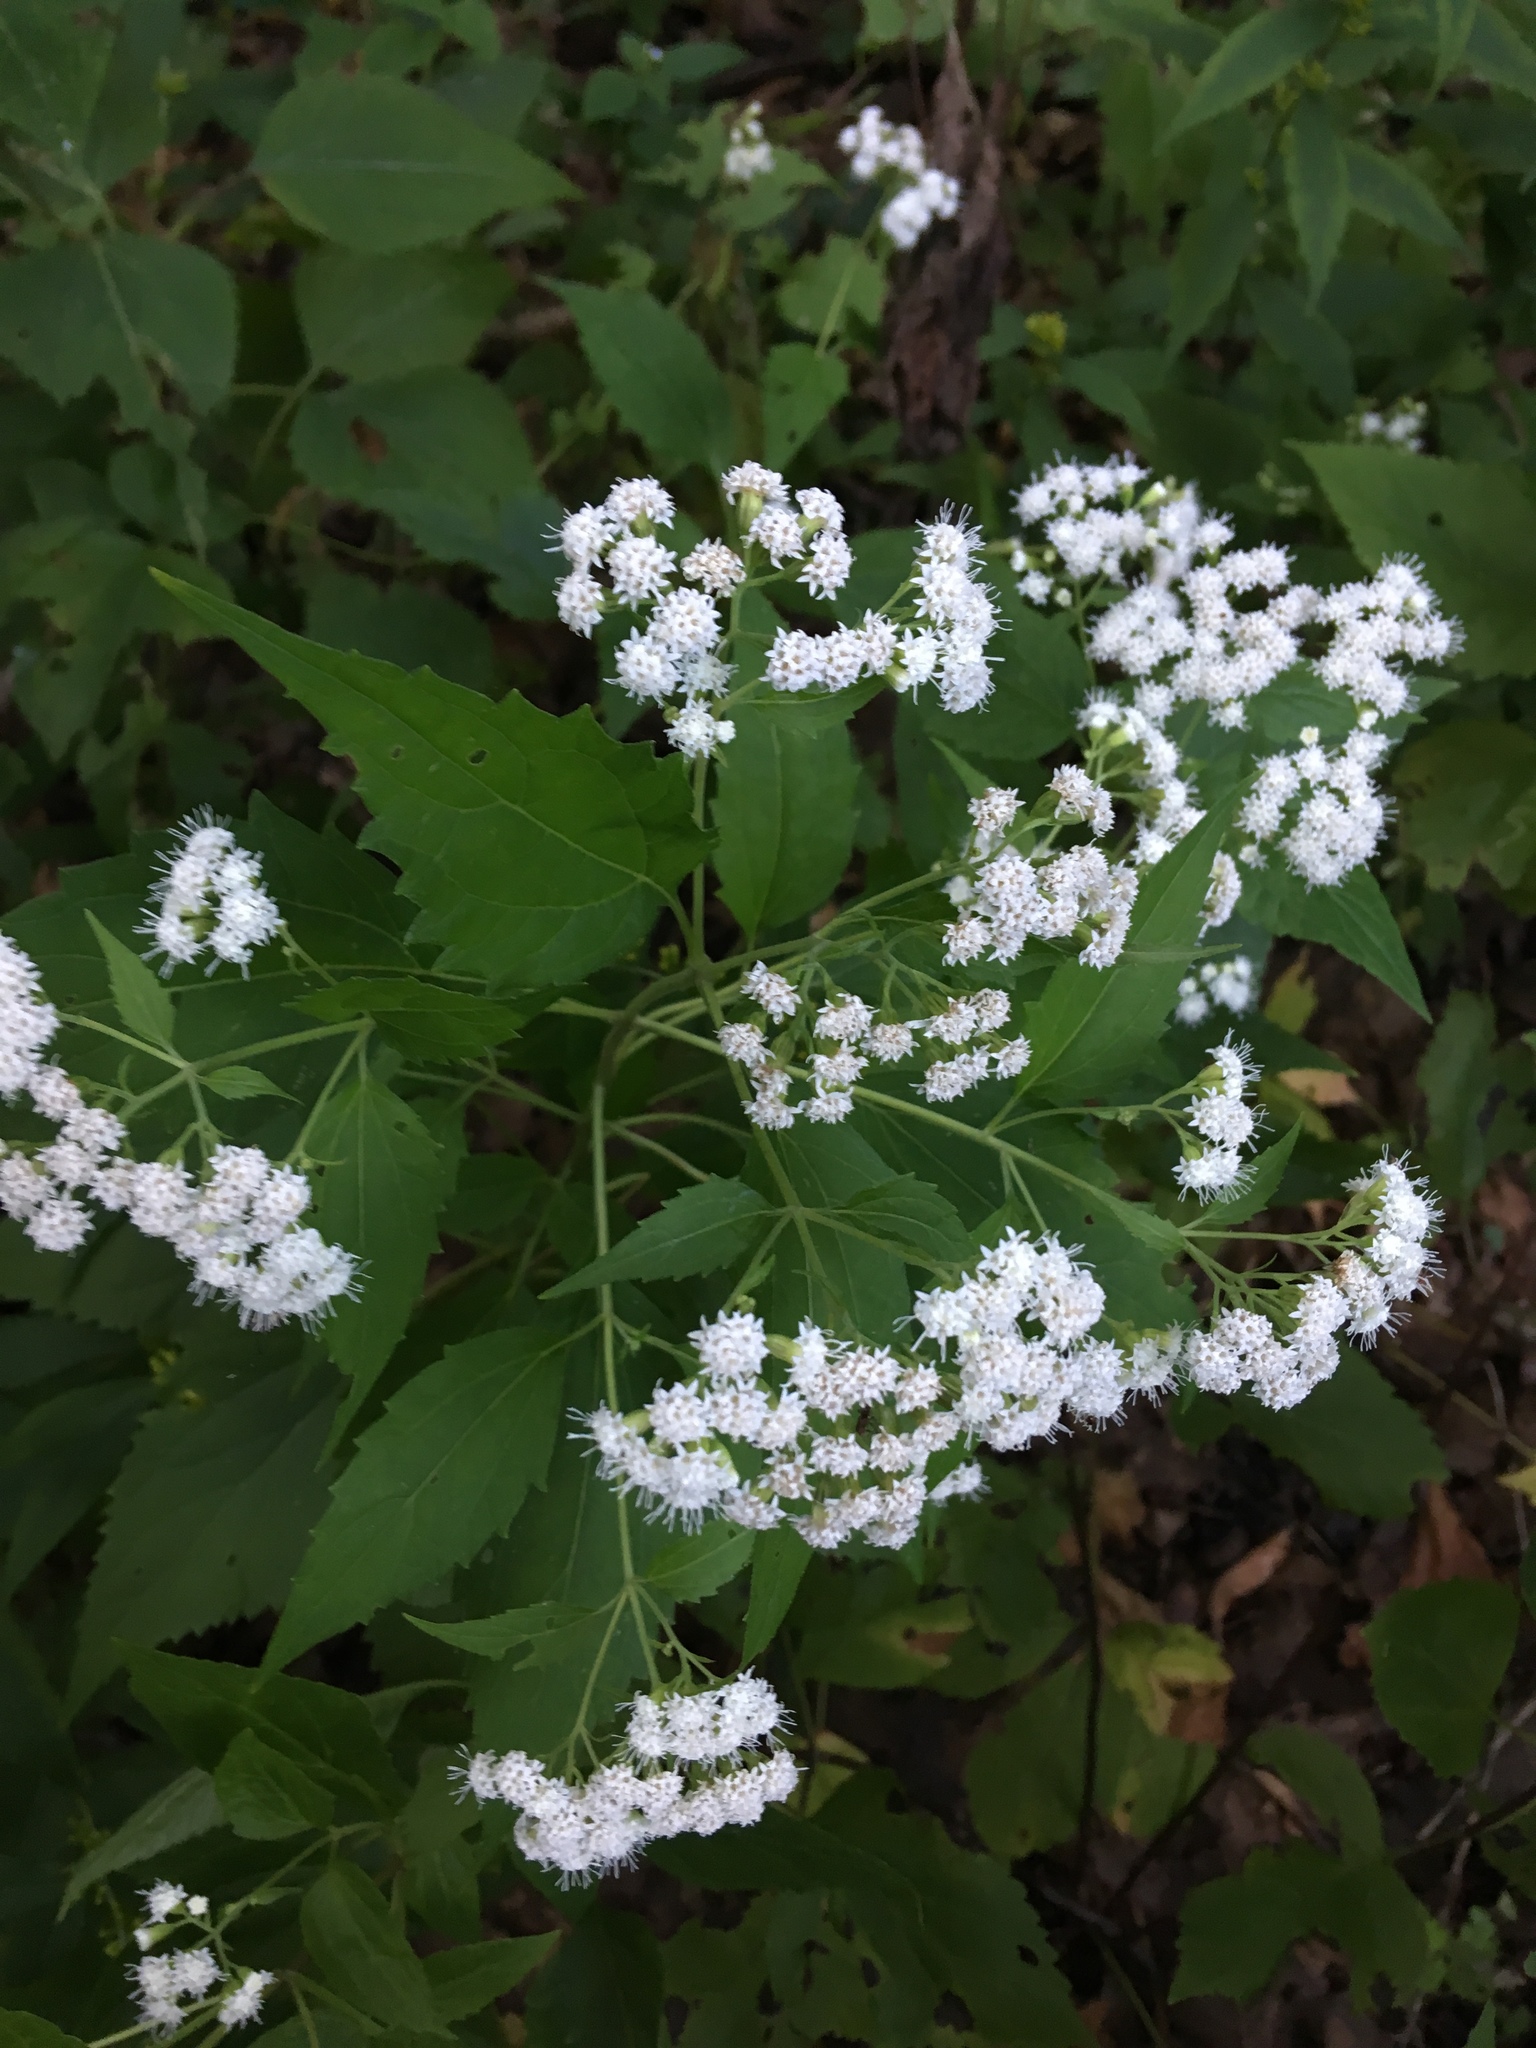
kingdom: Plantae
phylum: Tracheophyta
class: Magnoliopsida
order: Asterales
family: Asteraceae
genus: Ageratina
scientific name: Ageratina altissima
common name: White snakeroot
